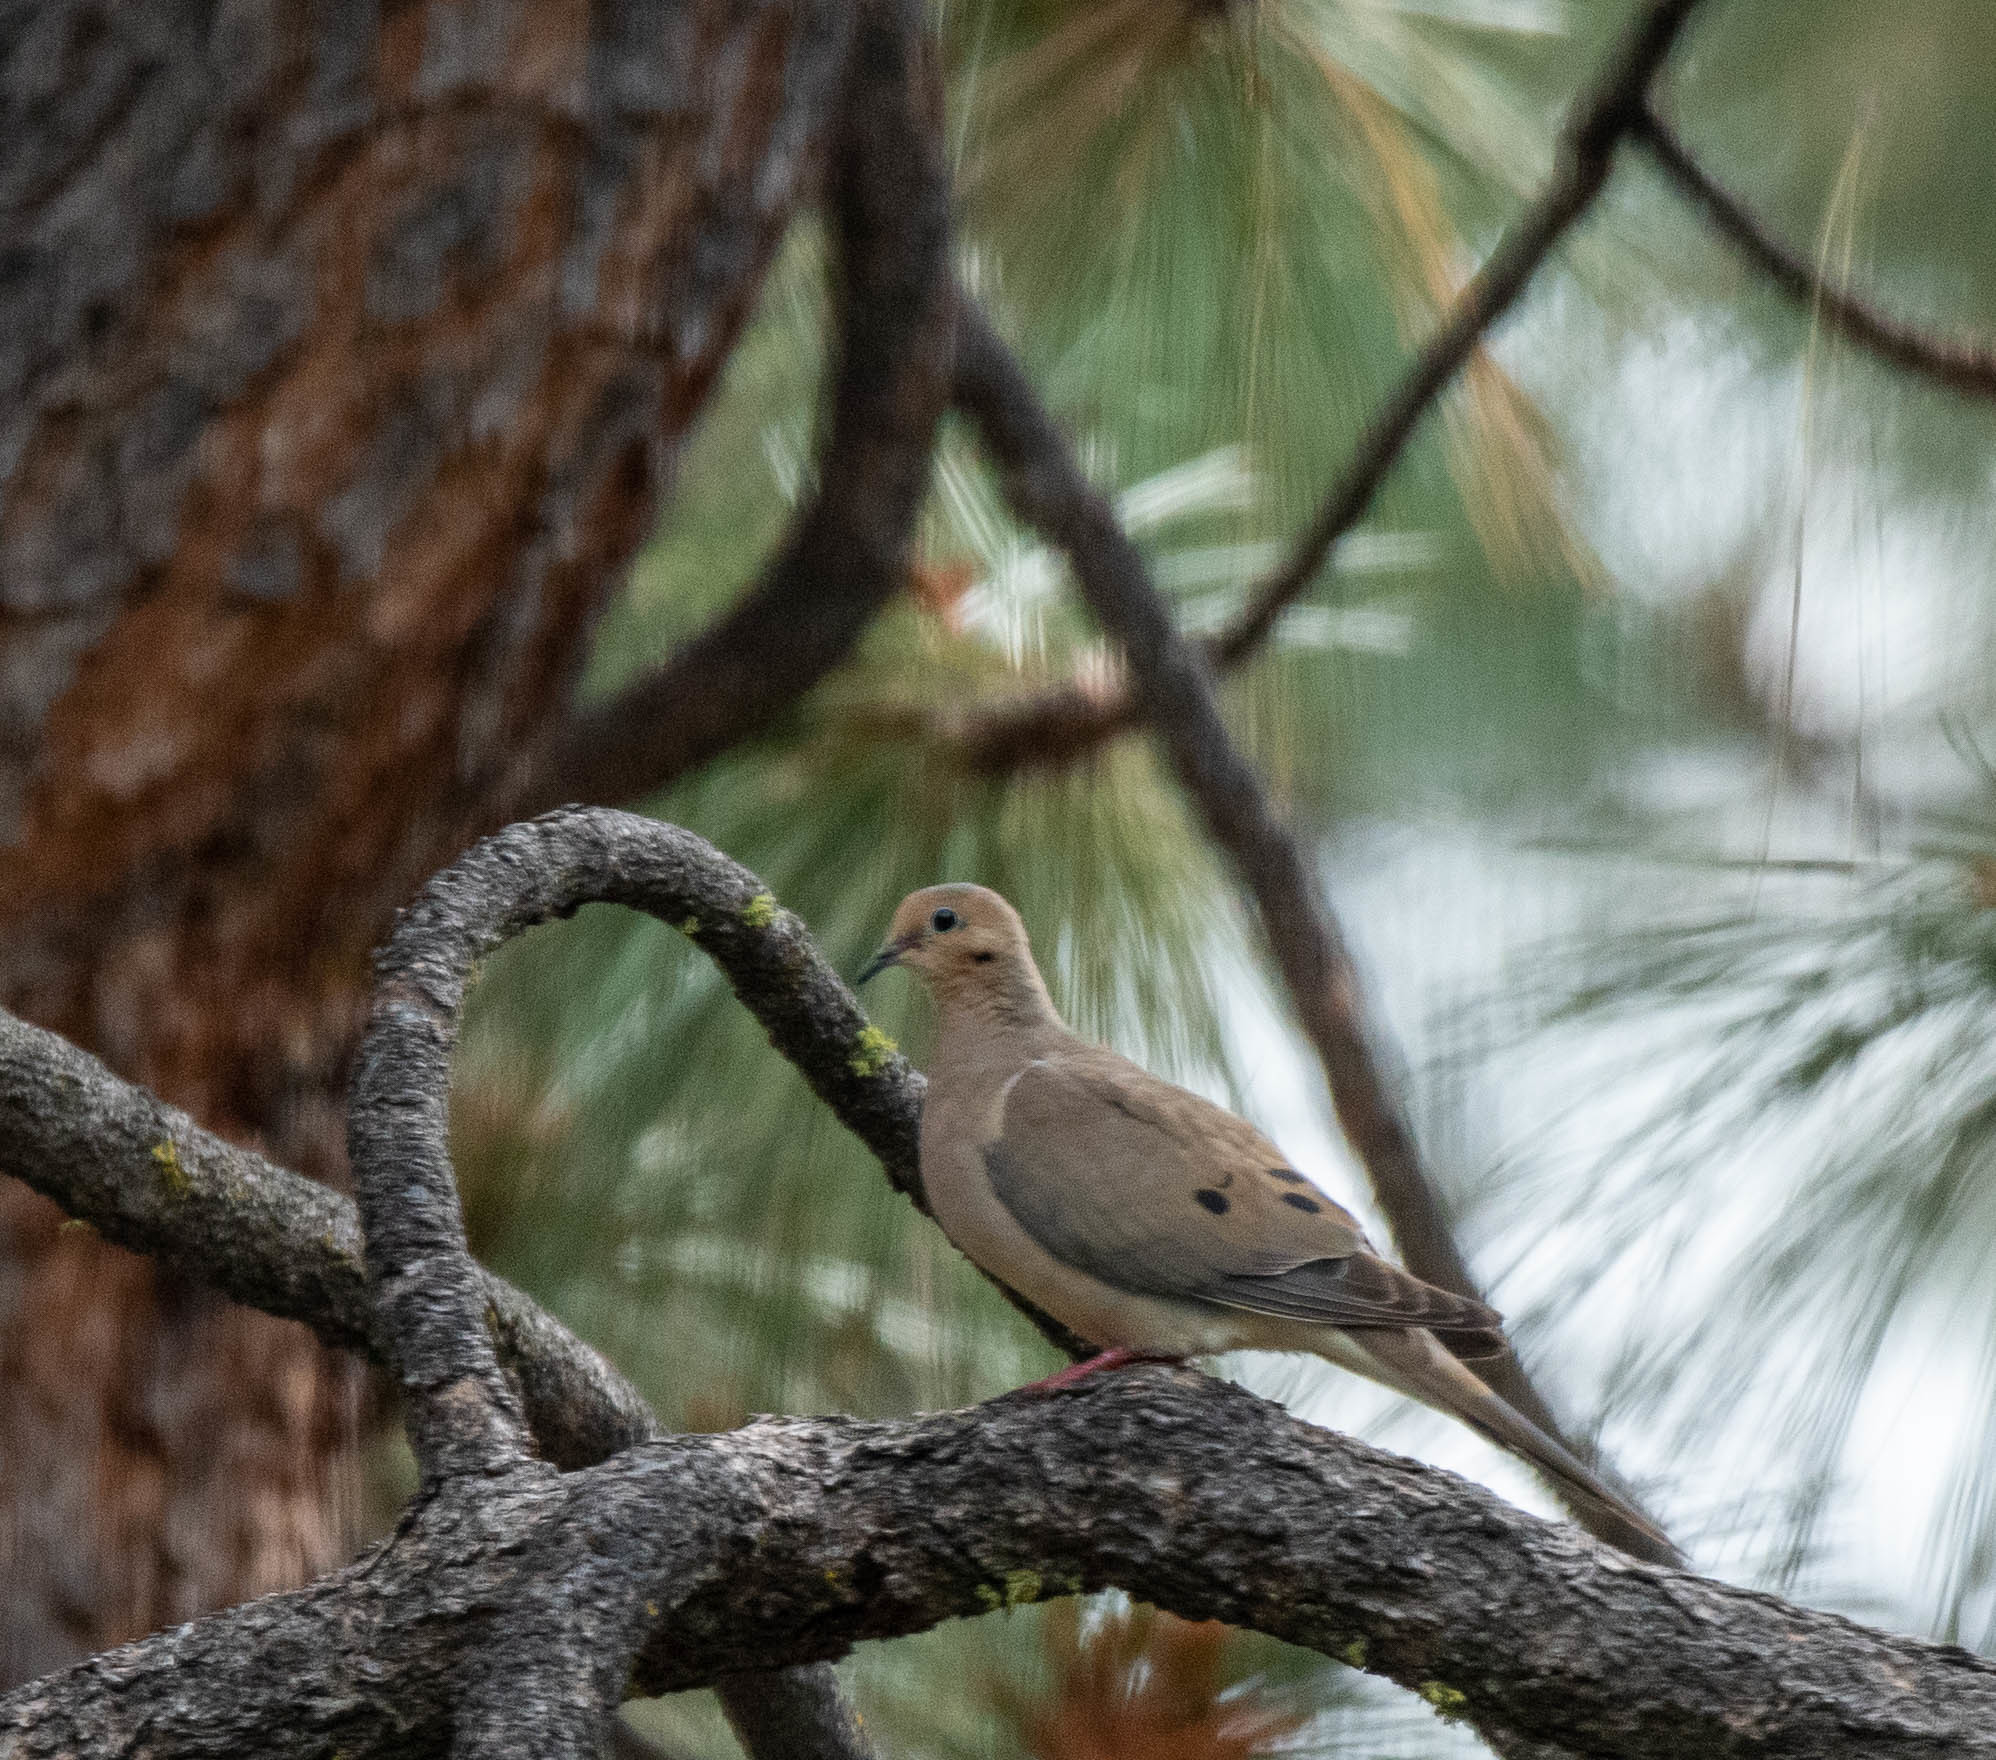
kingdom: Animalia
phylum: Chordata
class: Aves
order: Columbiformes
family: Columbidae
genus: Zenaida
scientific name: Zenaida macroura
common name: Mourning dove
